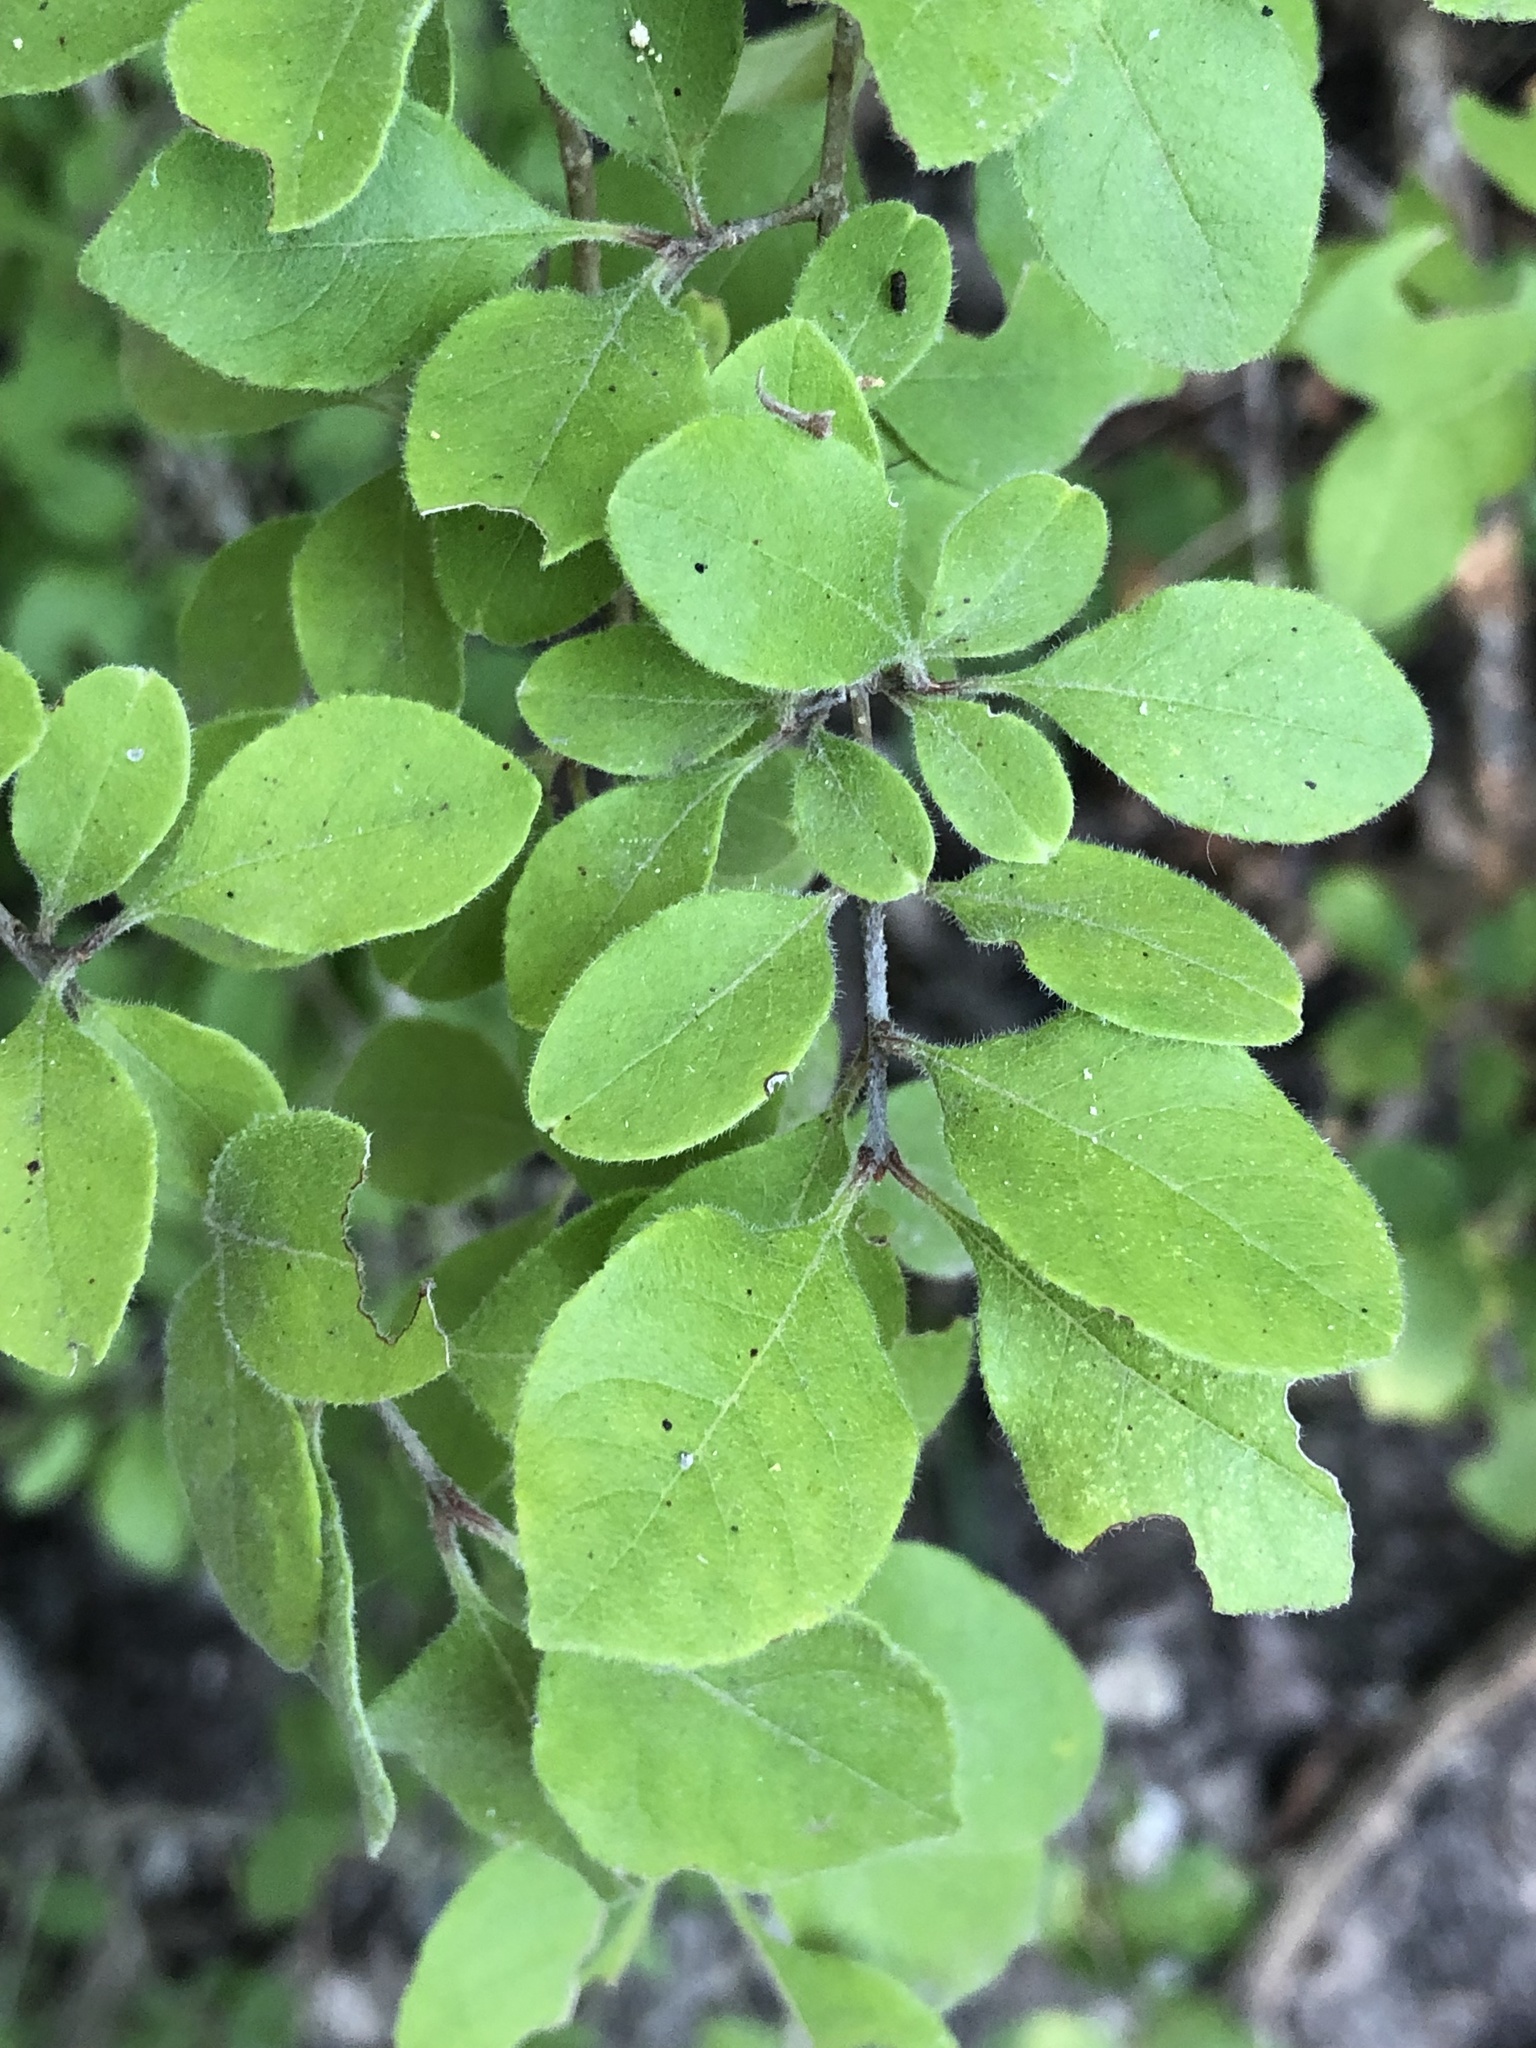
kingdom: Plantae
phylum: Tracheophyta
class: Magnoliopsida
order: Lamiales
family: Oleaceae
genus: Forestiera
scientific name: Forestiera pubescens
